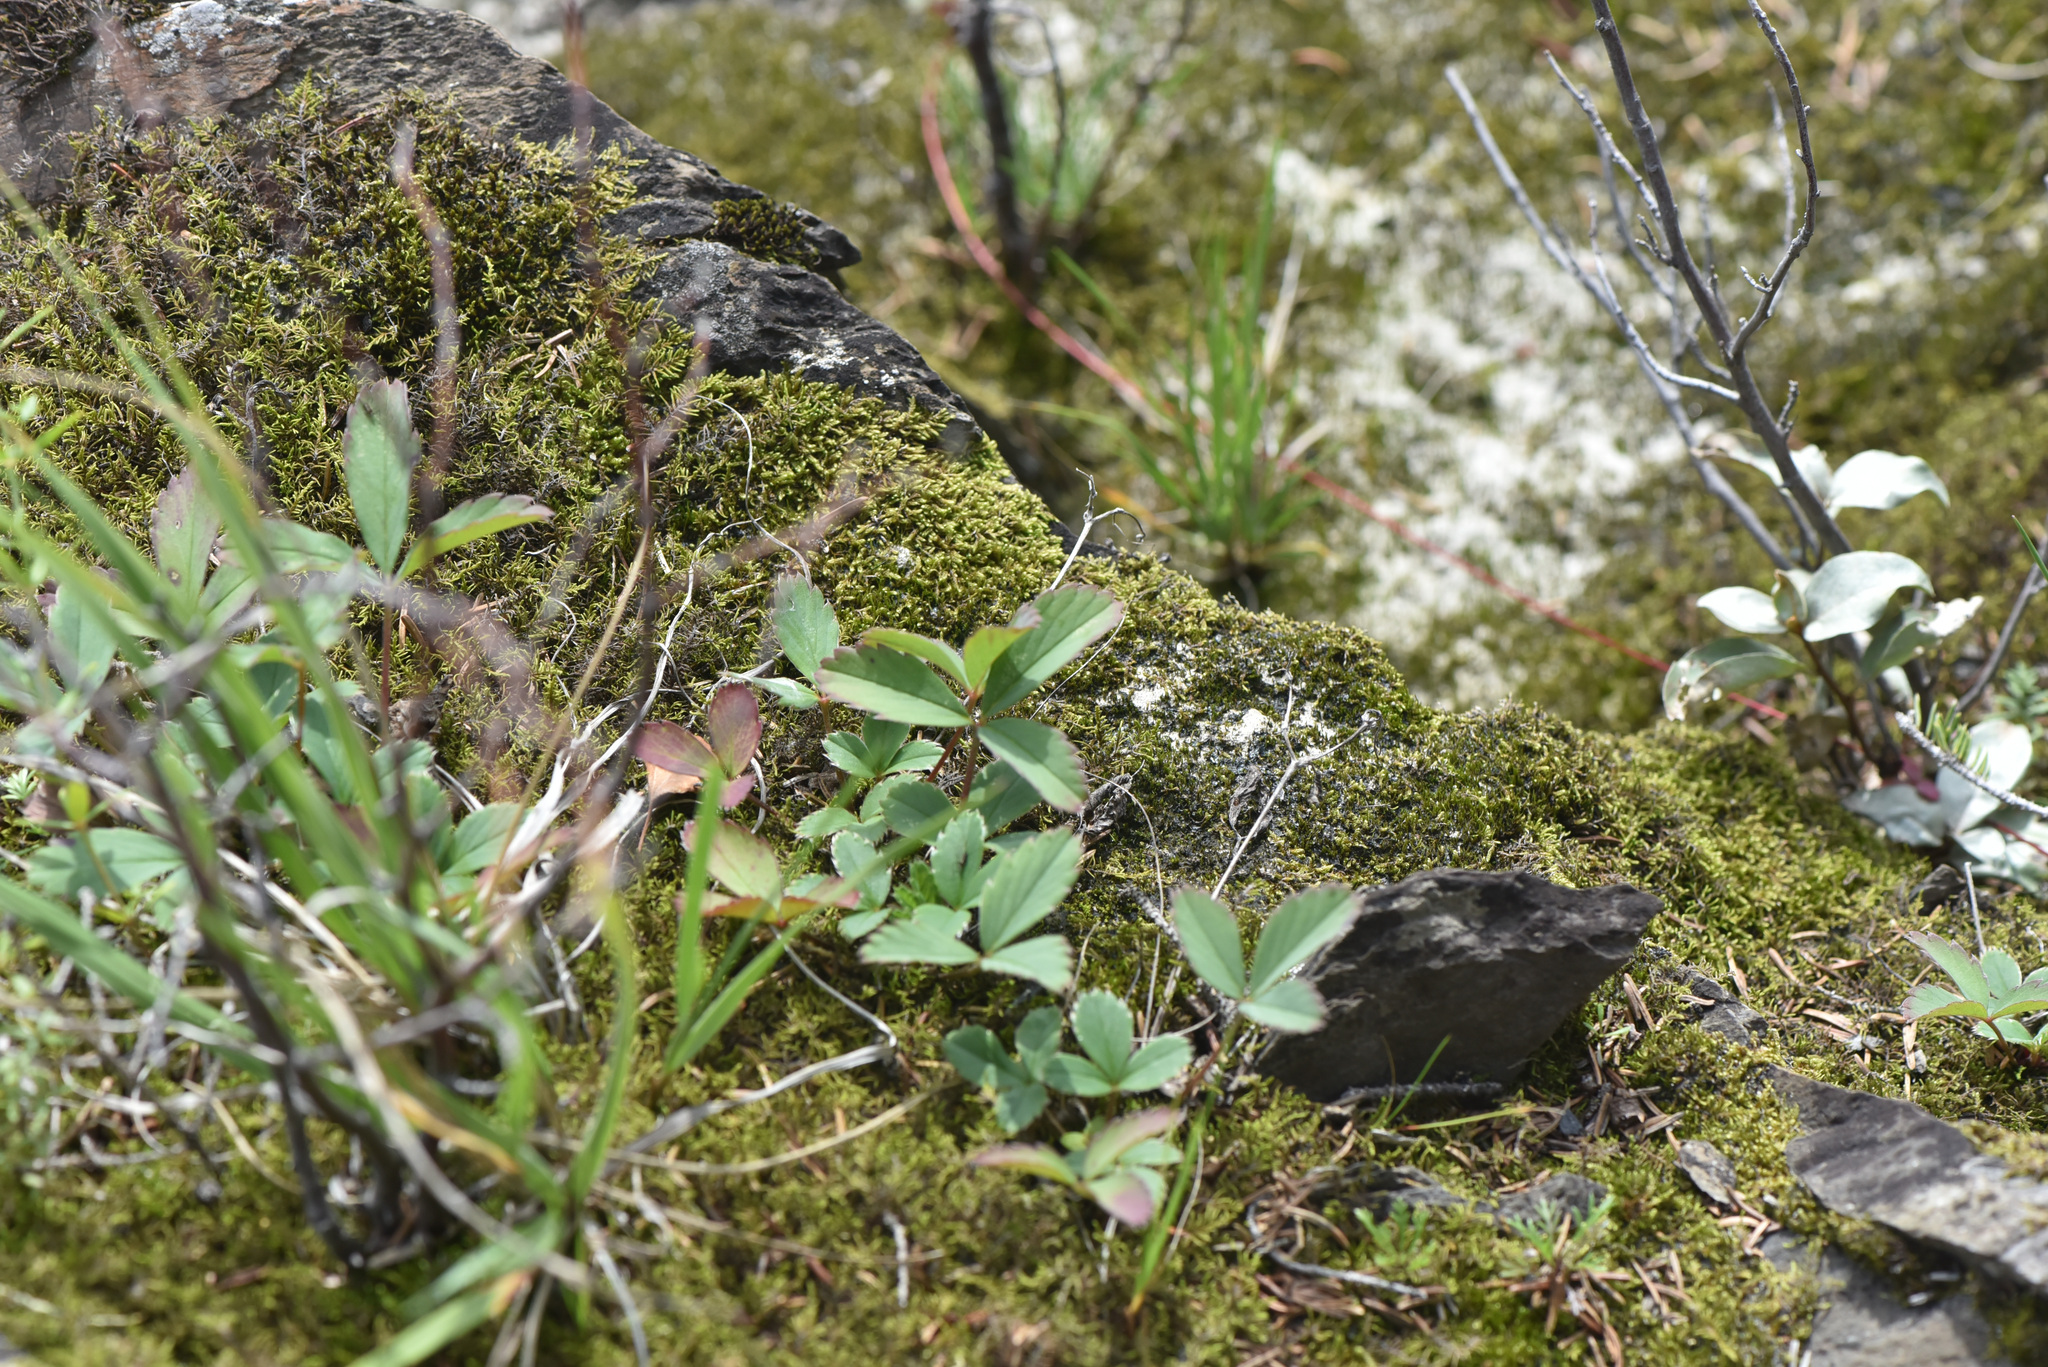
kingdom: Plantae
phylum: Tracheophyta
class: Magnoliopsida
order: Rosales
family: Rosaceae
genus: Fragaria
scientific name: Fragaria virginiana
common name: Thickleaved wild strawberry
